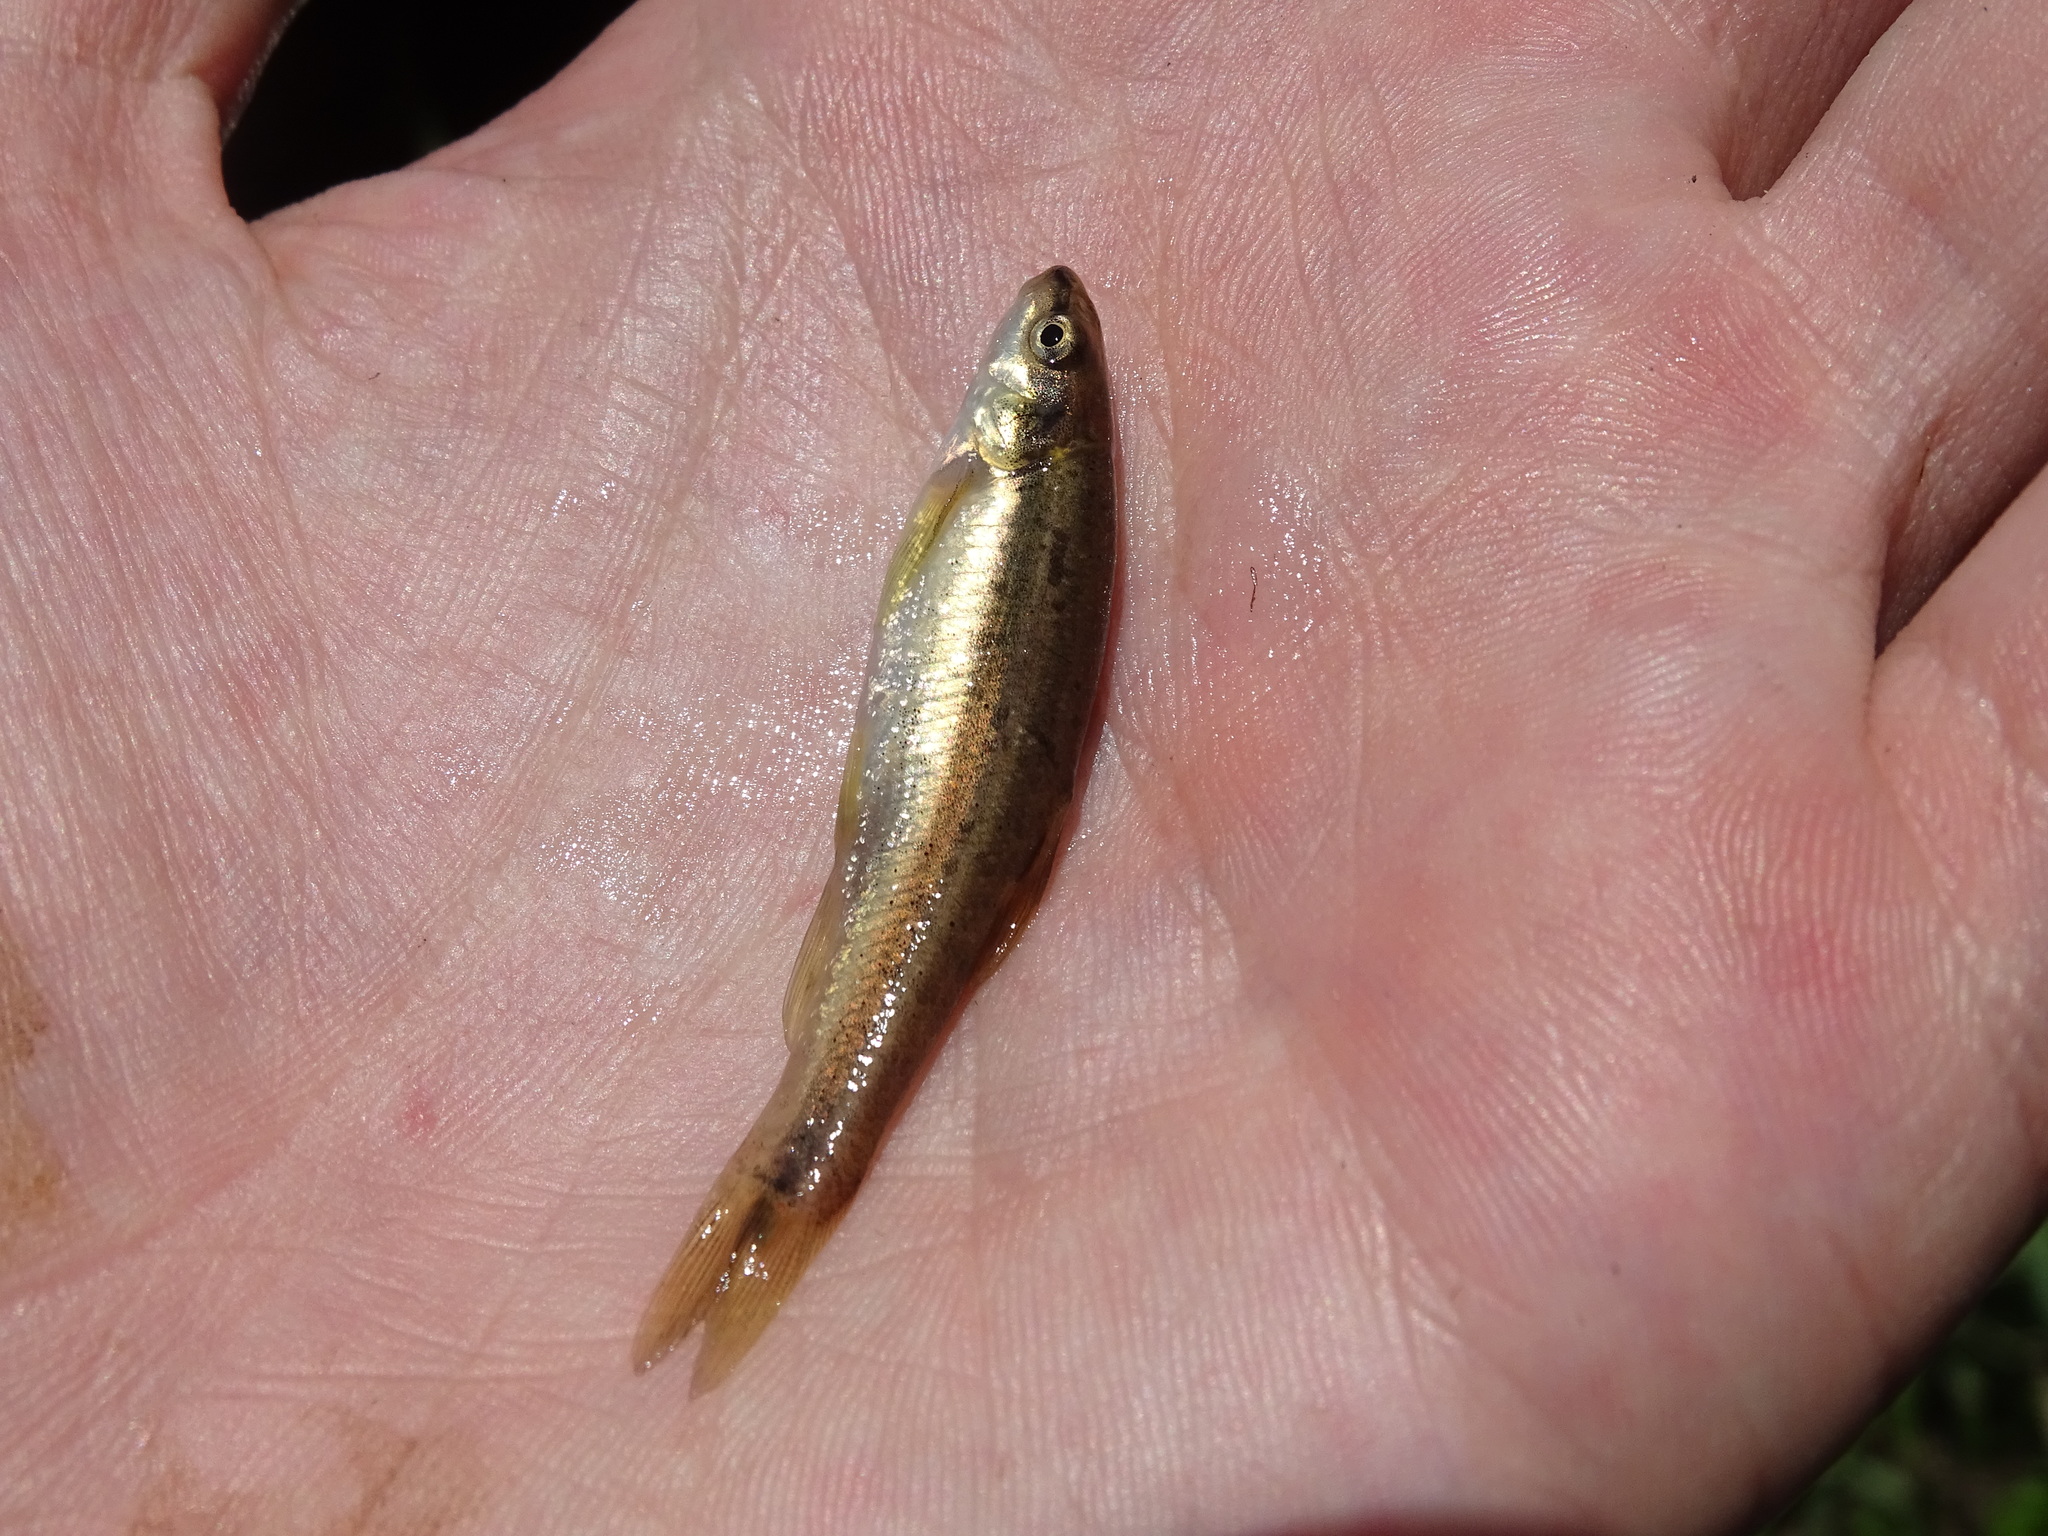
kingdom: Animalia
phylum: Chordata
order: Cypriniformes
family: Cyprinidae
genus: Rhinichthys
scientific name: Rhinichthys obtusus
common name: Western blacknose dace
